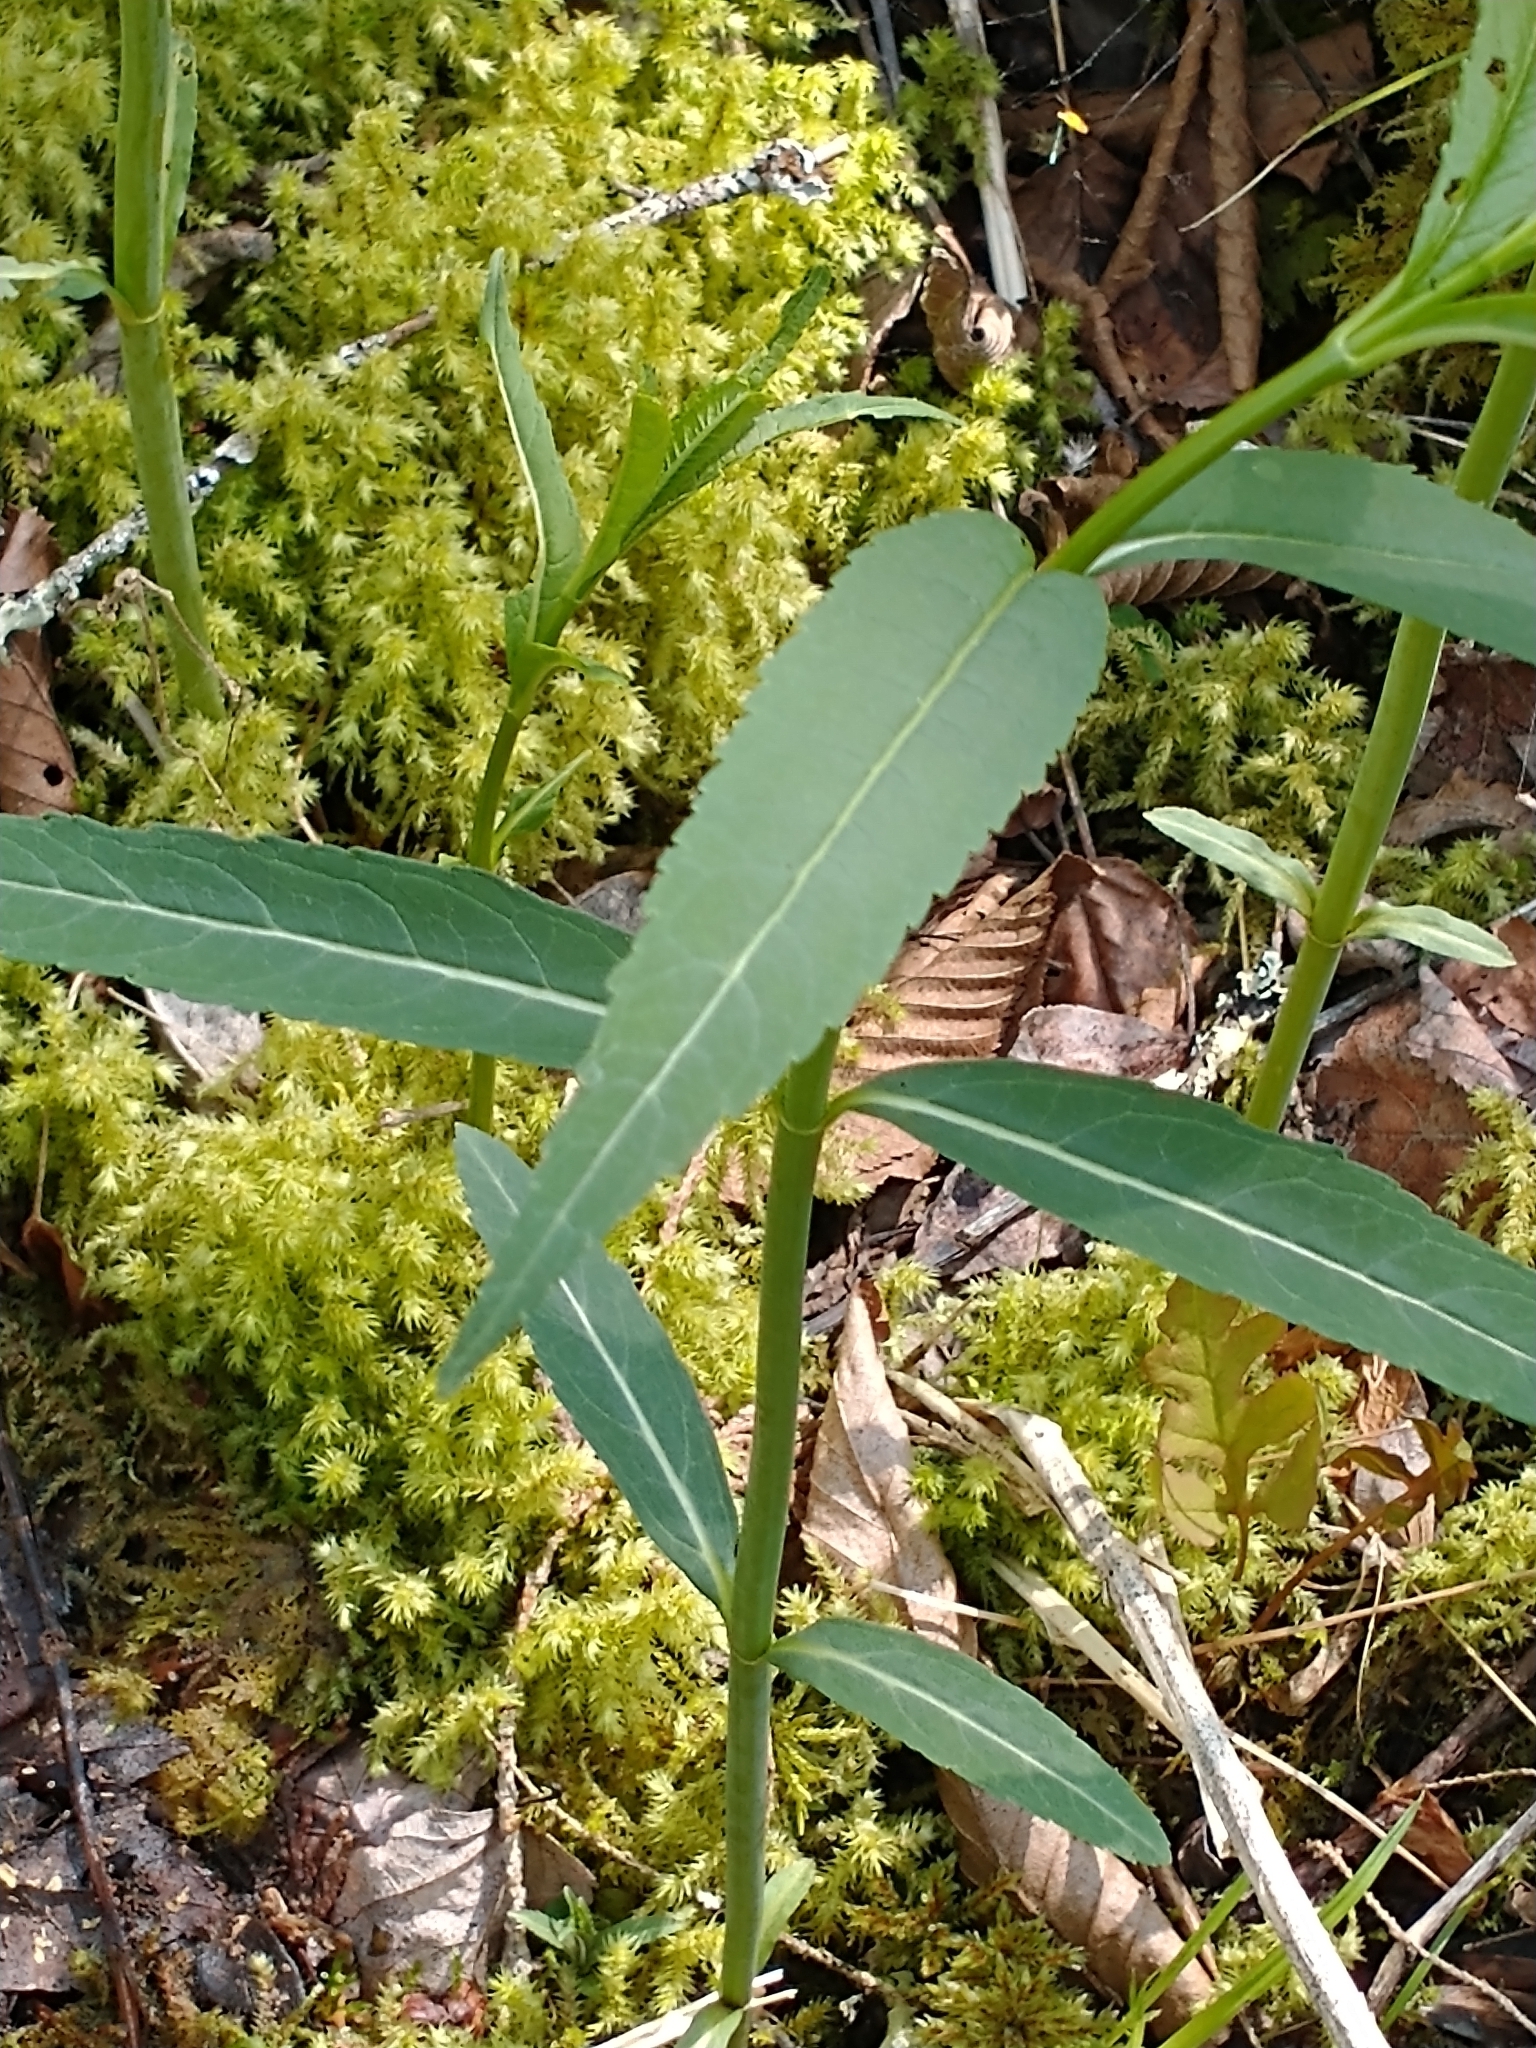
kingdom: Plantae
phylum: Tracheophyta
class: Magnoliopsida
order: Lamiales
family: Plantaginaceae
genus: Chelone
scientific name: Chelone glabra
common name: Snakehead
